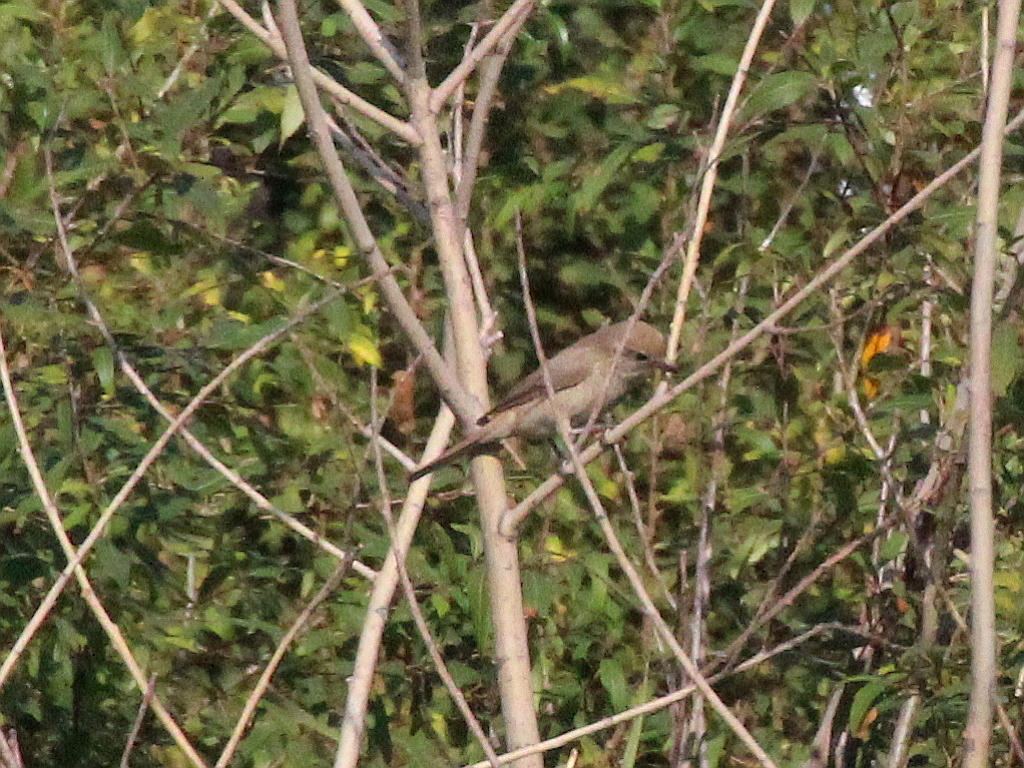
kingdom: Animalia
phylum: Chordata
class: Aves
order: Passeriformes
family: Laniidae
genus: Lanius
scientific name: Lanius phoenicuroides
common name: Red-tailed shrike
